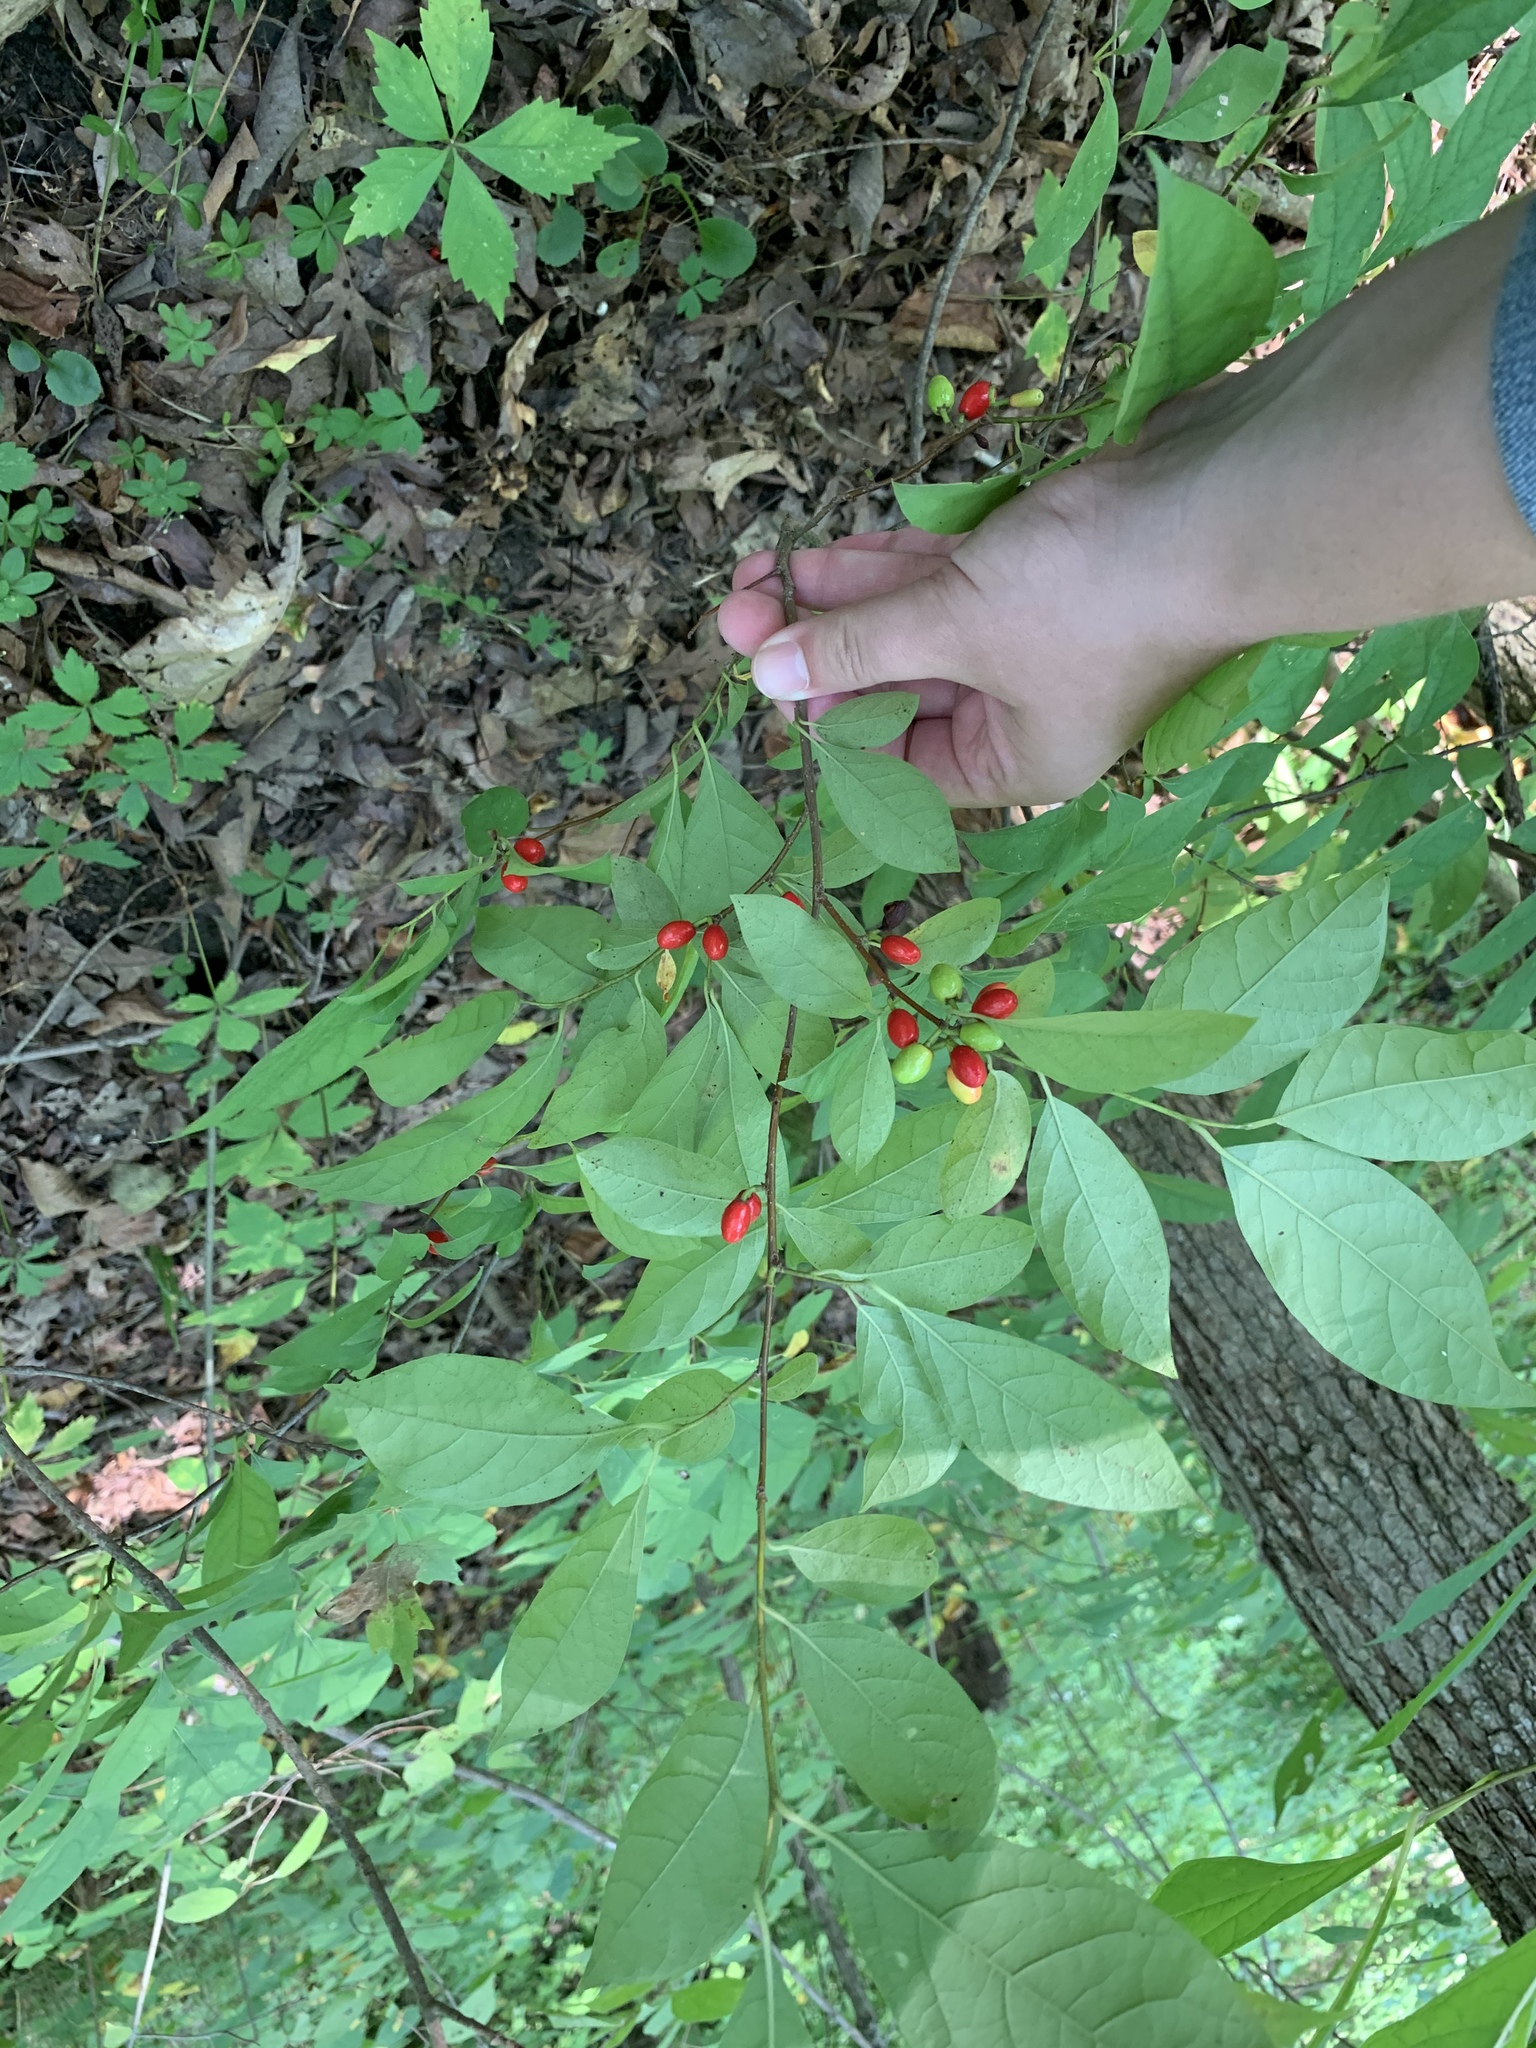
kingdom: Plantae
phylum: Tracheophyta
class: Magnoliopsida
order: Laurales
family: Lauraceae
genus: Lindera
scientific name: Lindera benzoin
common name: Spicebush
